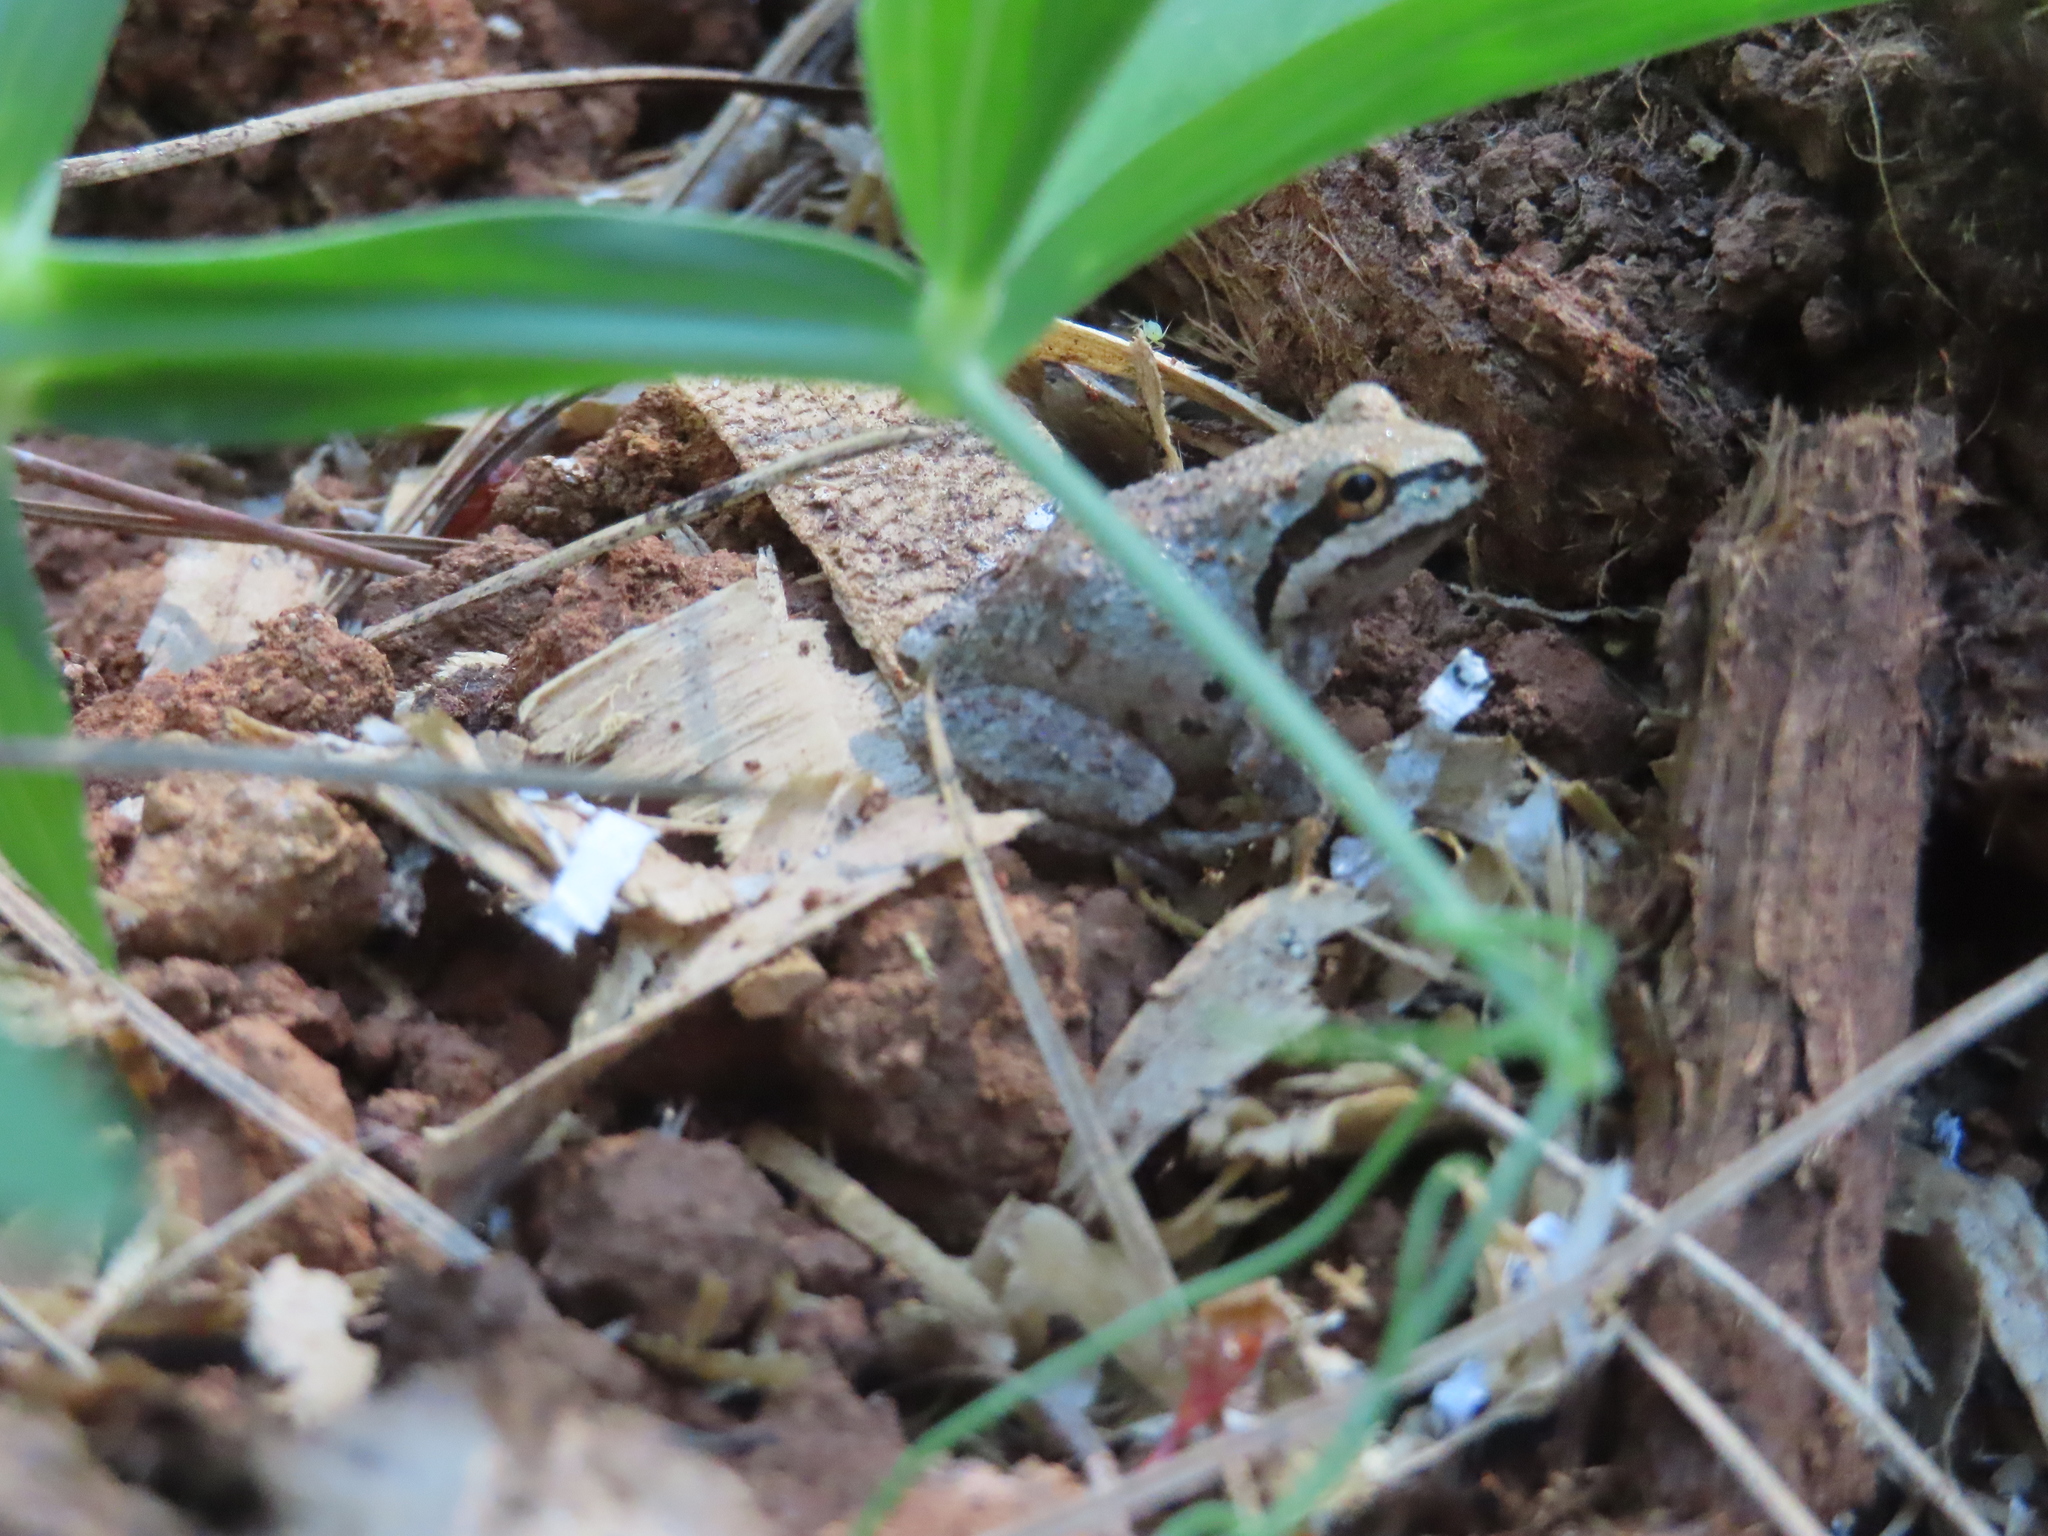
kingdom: Animalia
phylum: Chordata
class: Amphibia
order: Anura
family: Hylidae
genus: Pseudacris
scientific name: Pseudacris regilla
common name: Pacific chorus frog
